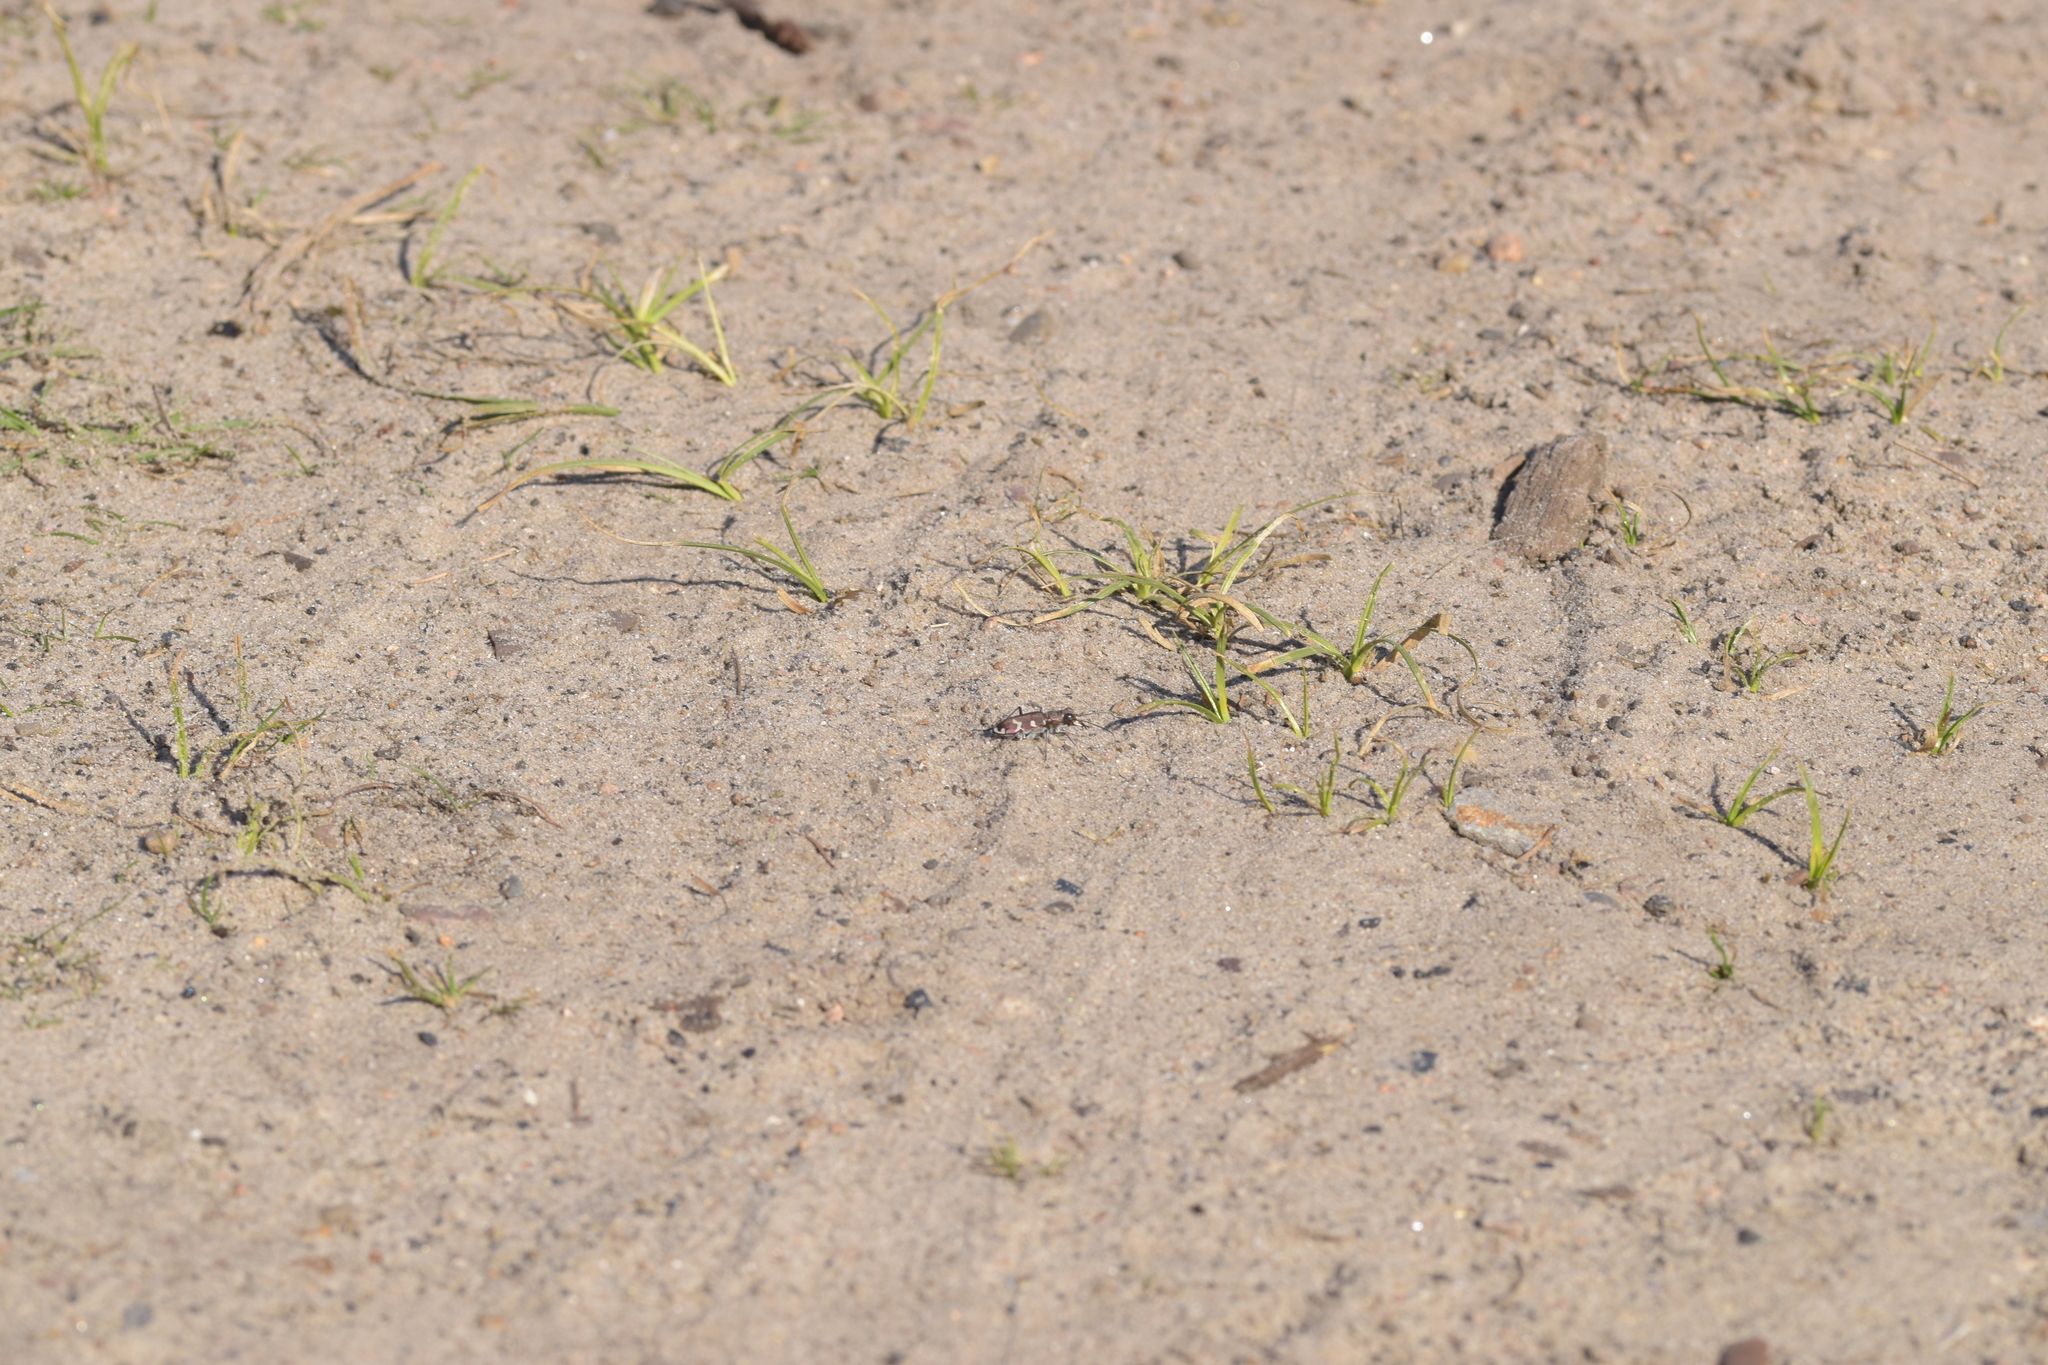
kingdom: Animalia
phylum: Arthropoda
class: Insecta
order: Coleoptera
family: Carabidae
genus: Cicindela
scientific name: Cicindela hybrida
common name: Northern dune tiger beetle
